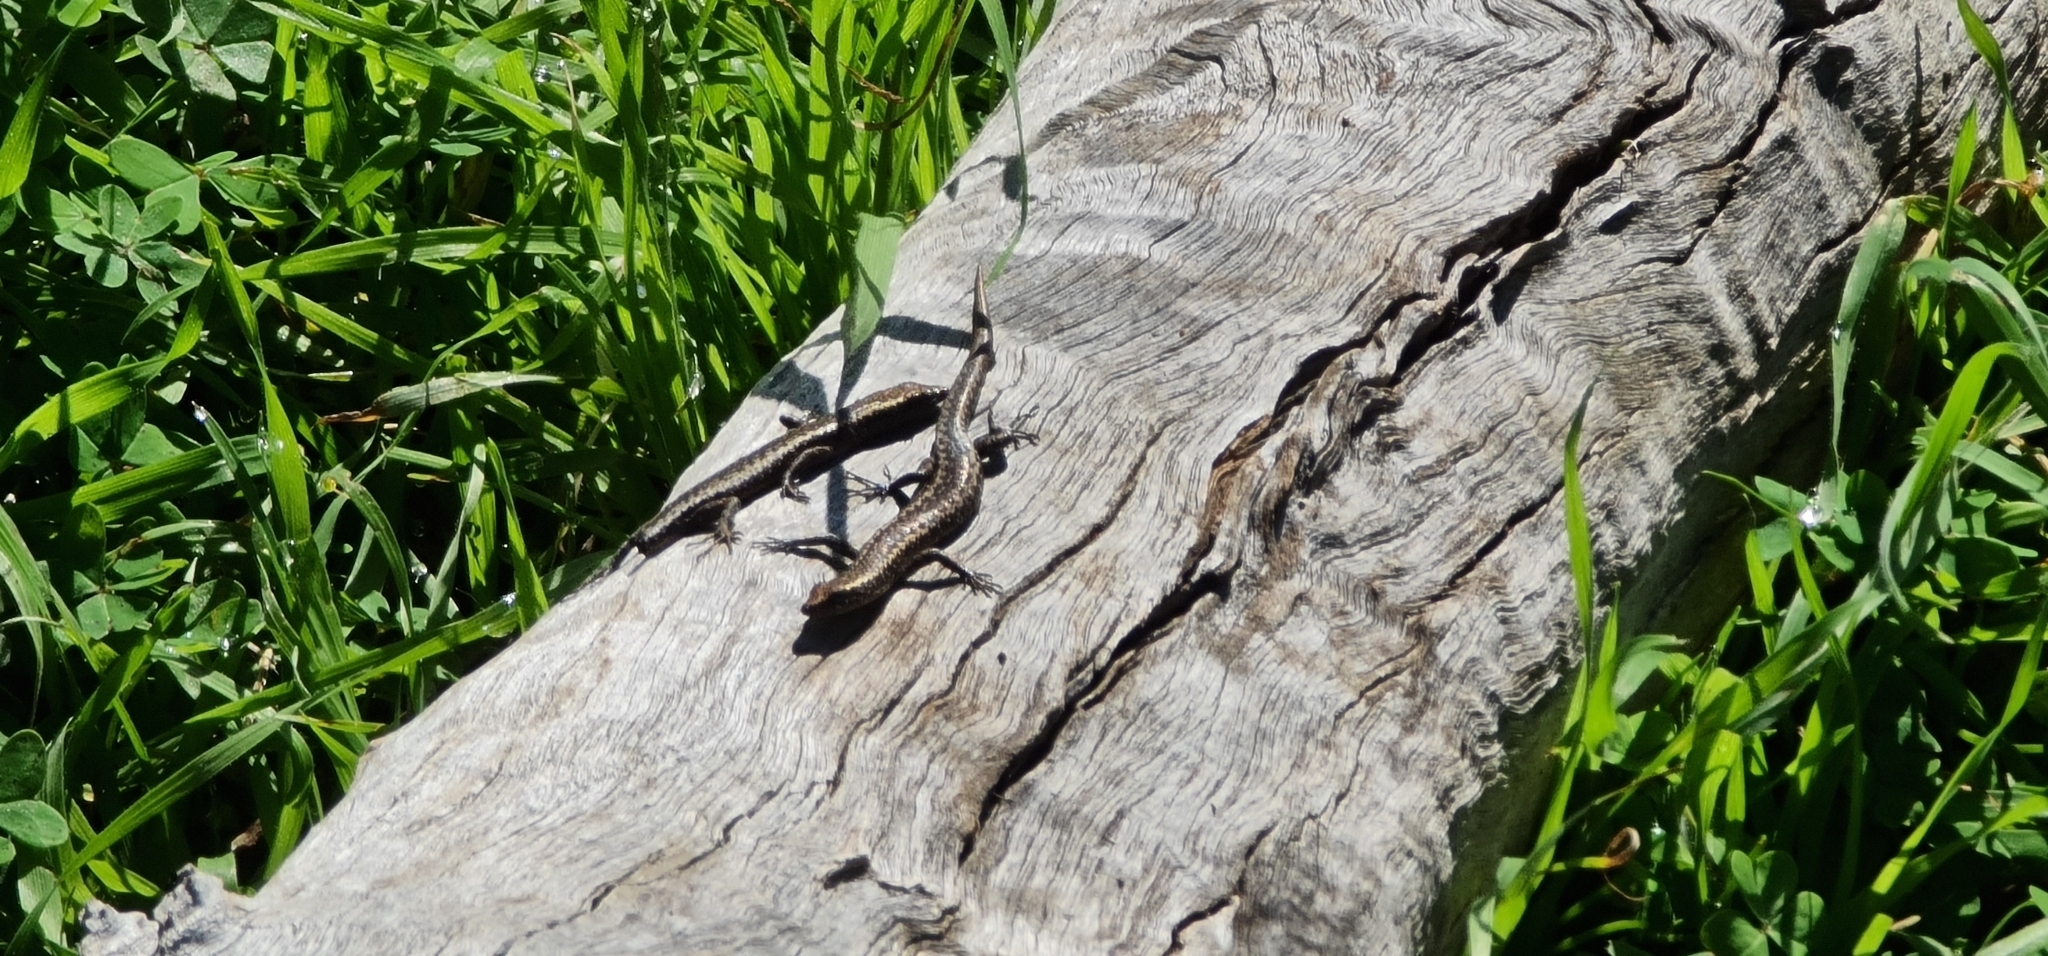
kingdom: Animalia
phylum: Chordata
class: Squamata
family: Scincidae
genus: Cryptoblepharus
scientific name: Cryptoblepharus pannosus
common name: Ragged snake-eyed skink
